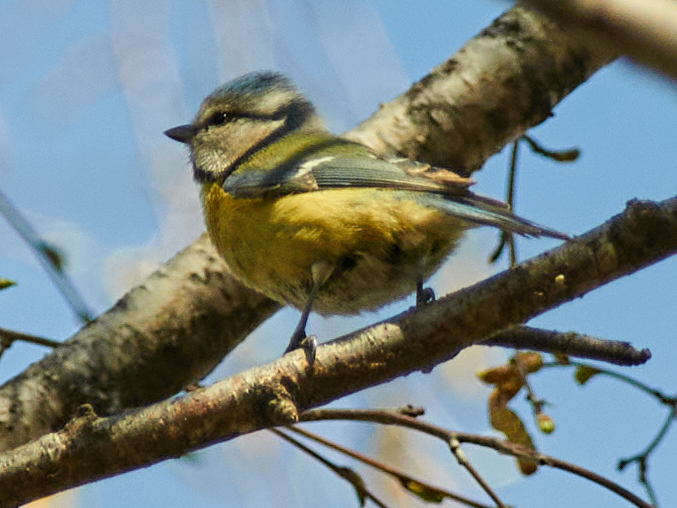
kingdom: Animalia
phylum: Chordata
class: Aves
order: Passeriformes
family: Paridae
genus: Cyanistes
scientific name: Cyanistes caeruleus
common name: Eurasian blue tit
